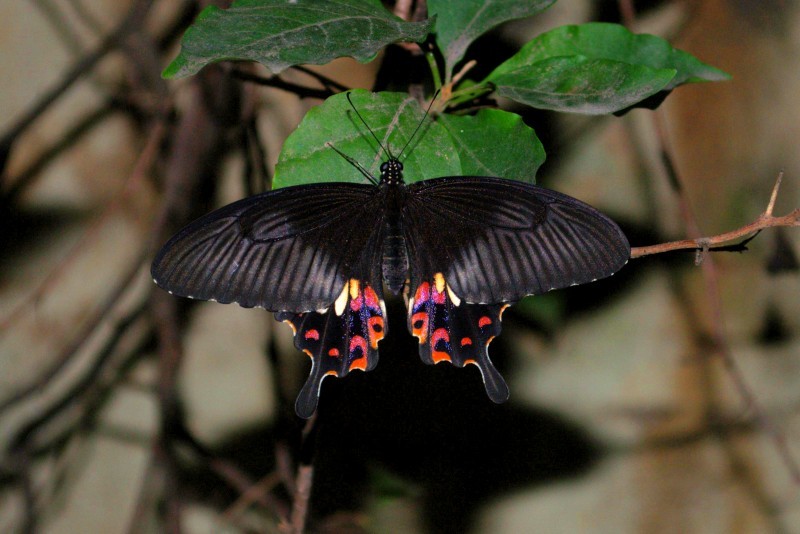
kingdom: Animalia
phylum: Arthropoda
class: Insecta
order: Lepidoptera
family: Papilionidae
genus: Papilio
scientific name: Papilio polytes
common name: Common mormon
